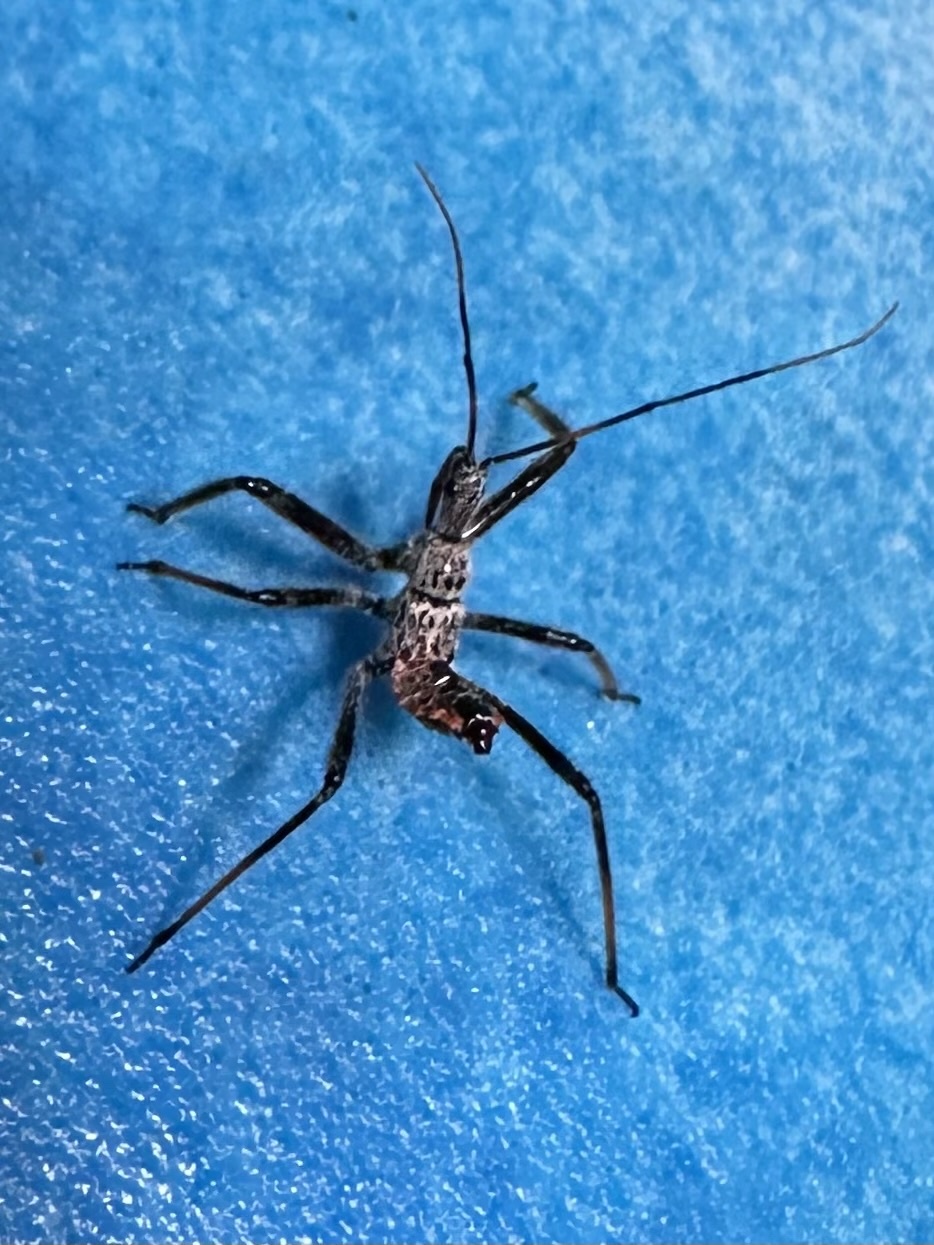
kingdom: Animalia
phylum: Arthropoda
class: Insecta
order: Hemiptera
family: Reduviidae
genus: Arilus
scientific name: Arilus cristatus
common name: North american wheel bug
